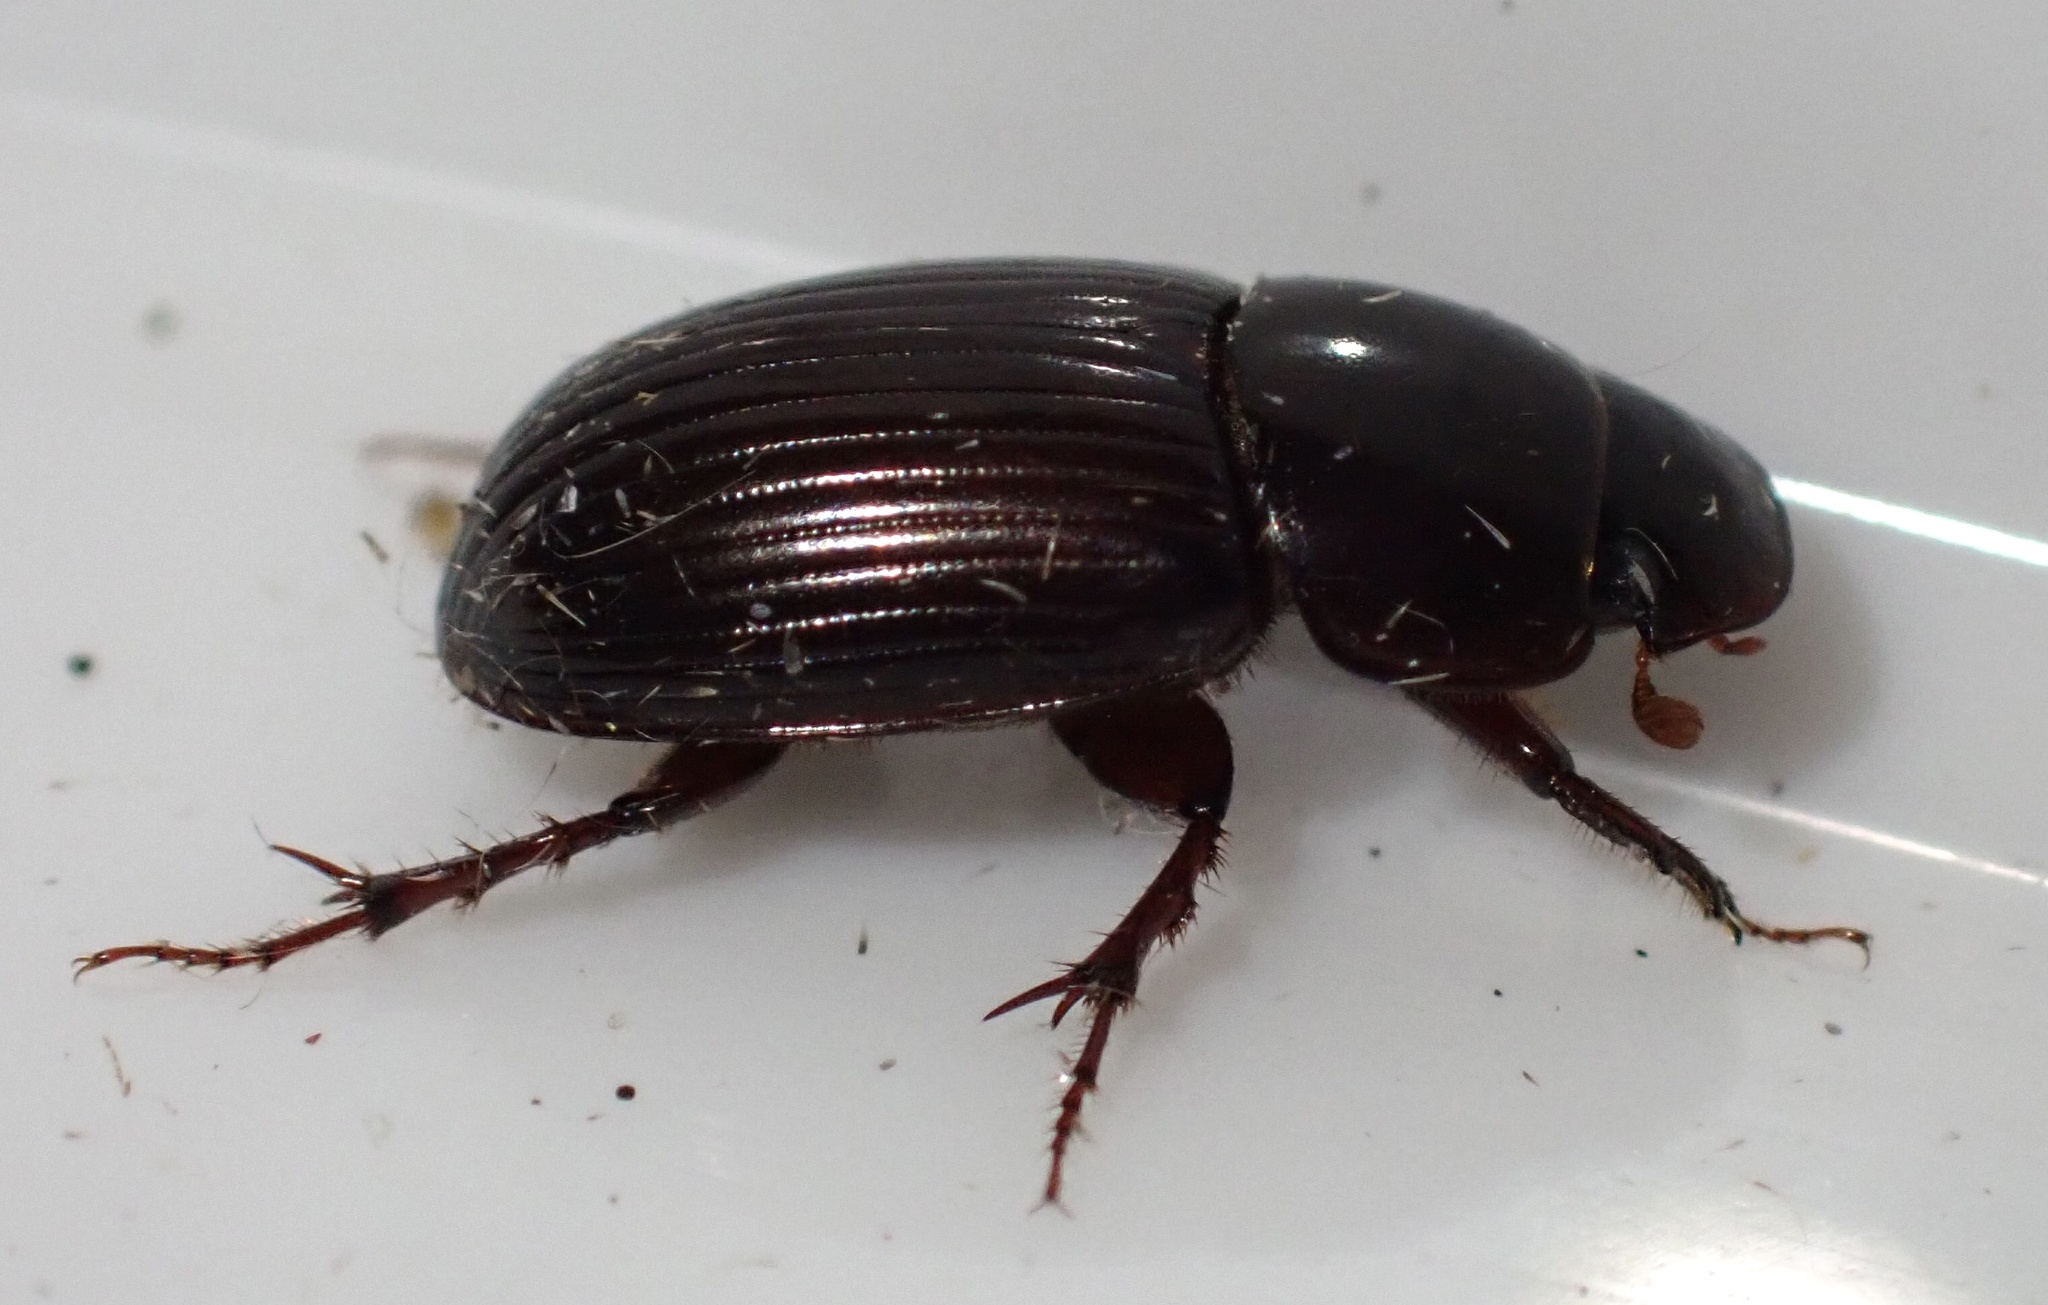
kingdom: Animalia
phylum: Arthropoda
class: Insecta
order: Coleoptera
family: Scarabaeidae
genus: Acrossus
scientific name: Acrossus rufipes
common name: Night-flying dung beetle
